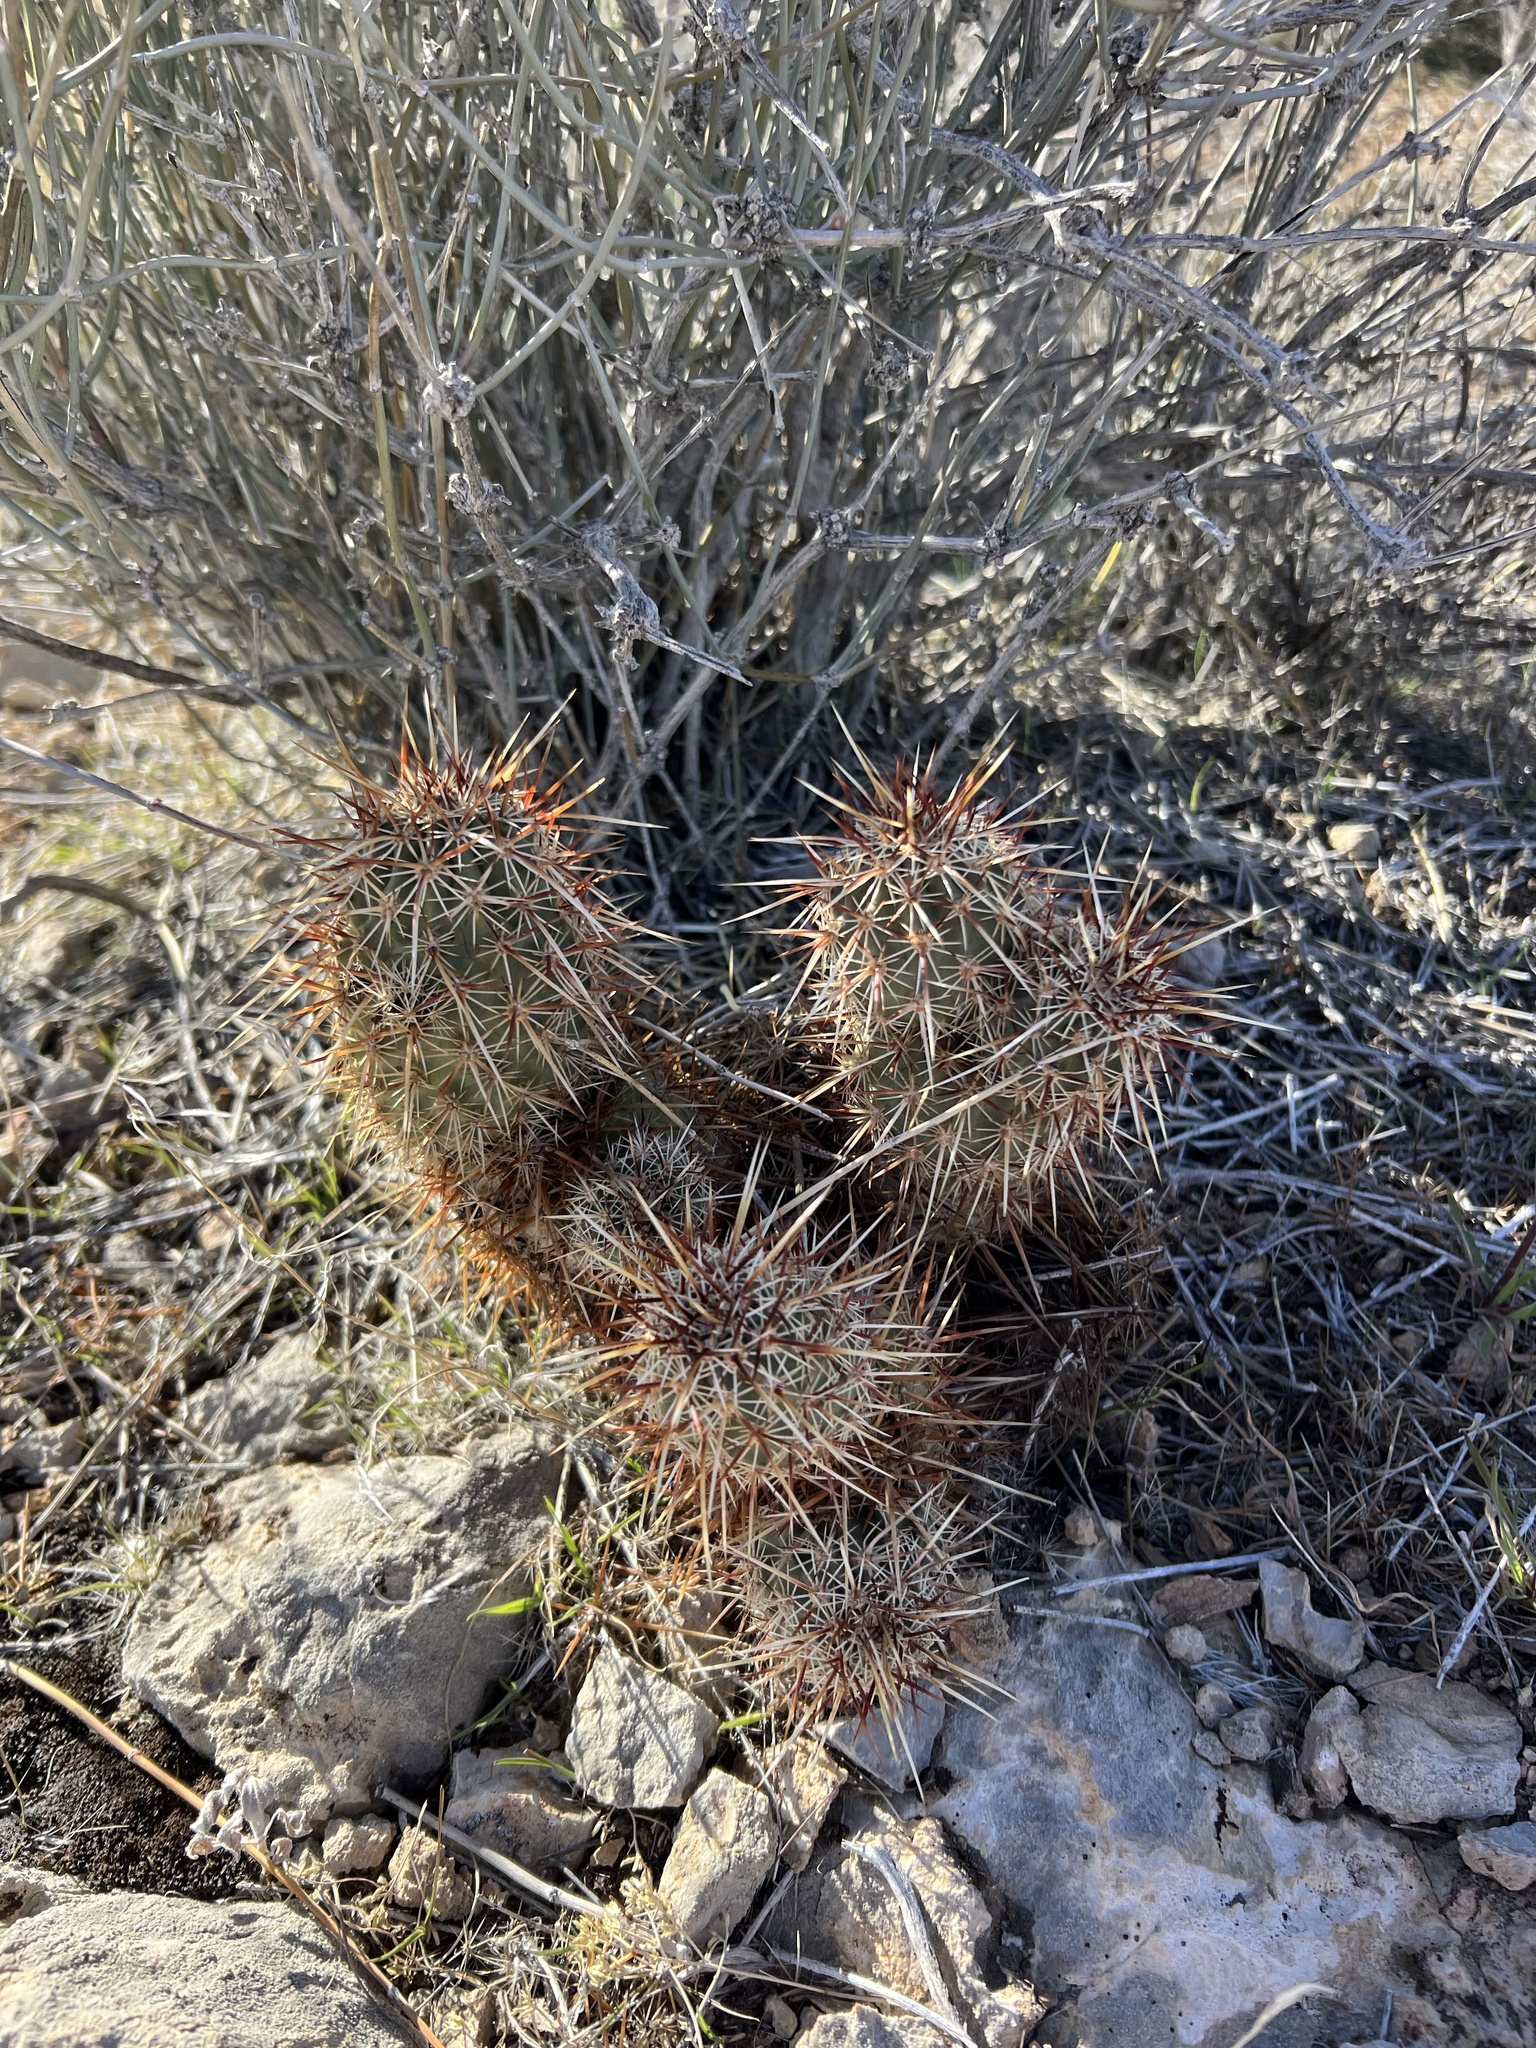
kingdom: Plantae
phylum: Tracheophyta
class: Magnoliopsida
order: Caryophyllales
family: Cactaceae
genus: Echinocereus
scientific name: Echinocereus engelmannii
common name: Engelmann's hedgehog cactus
